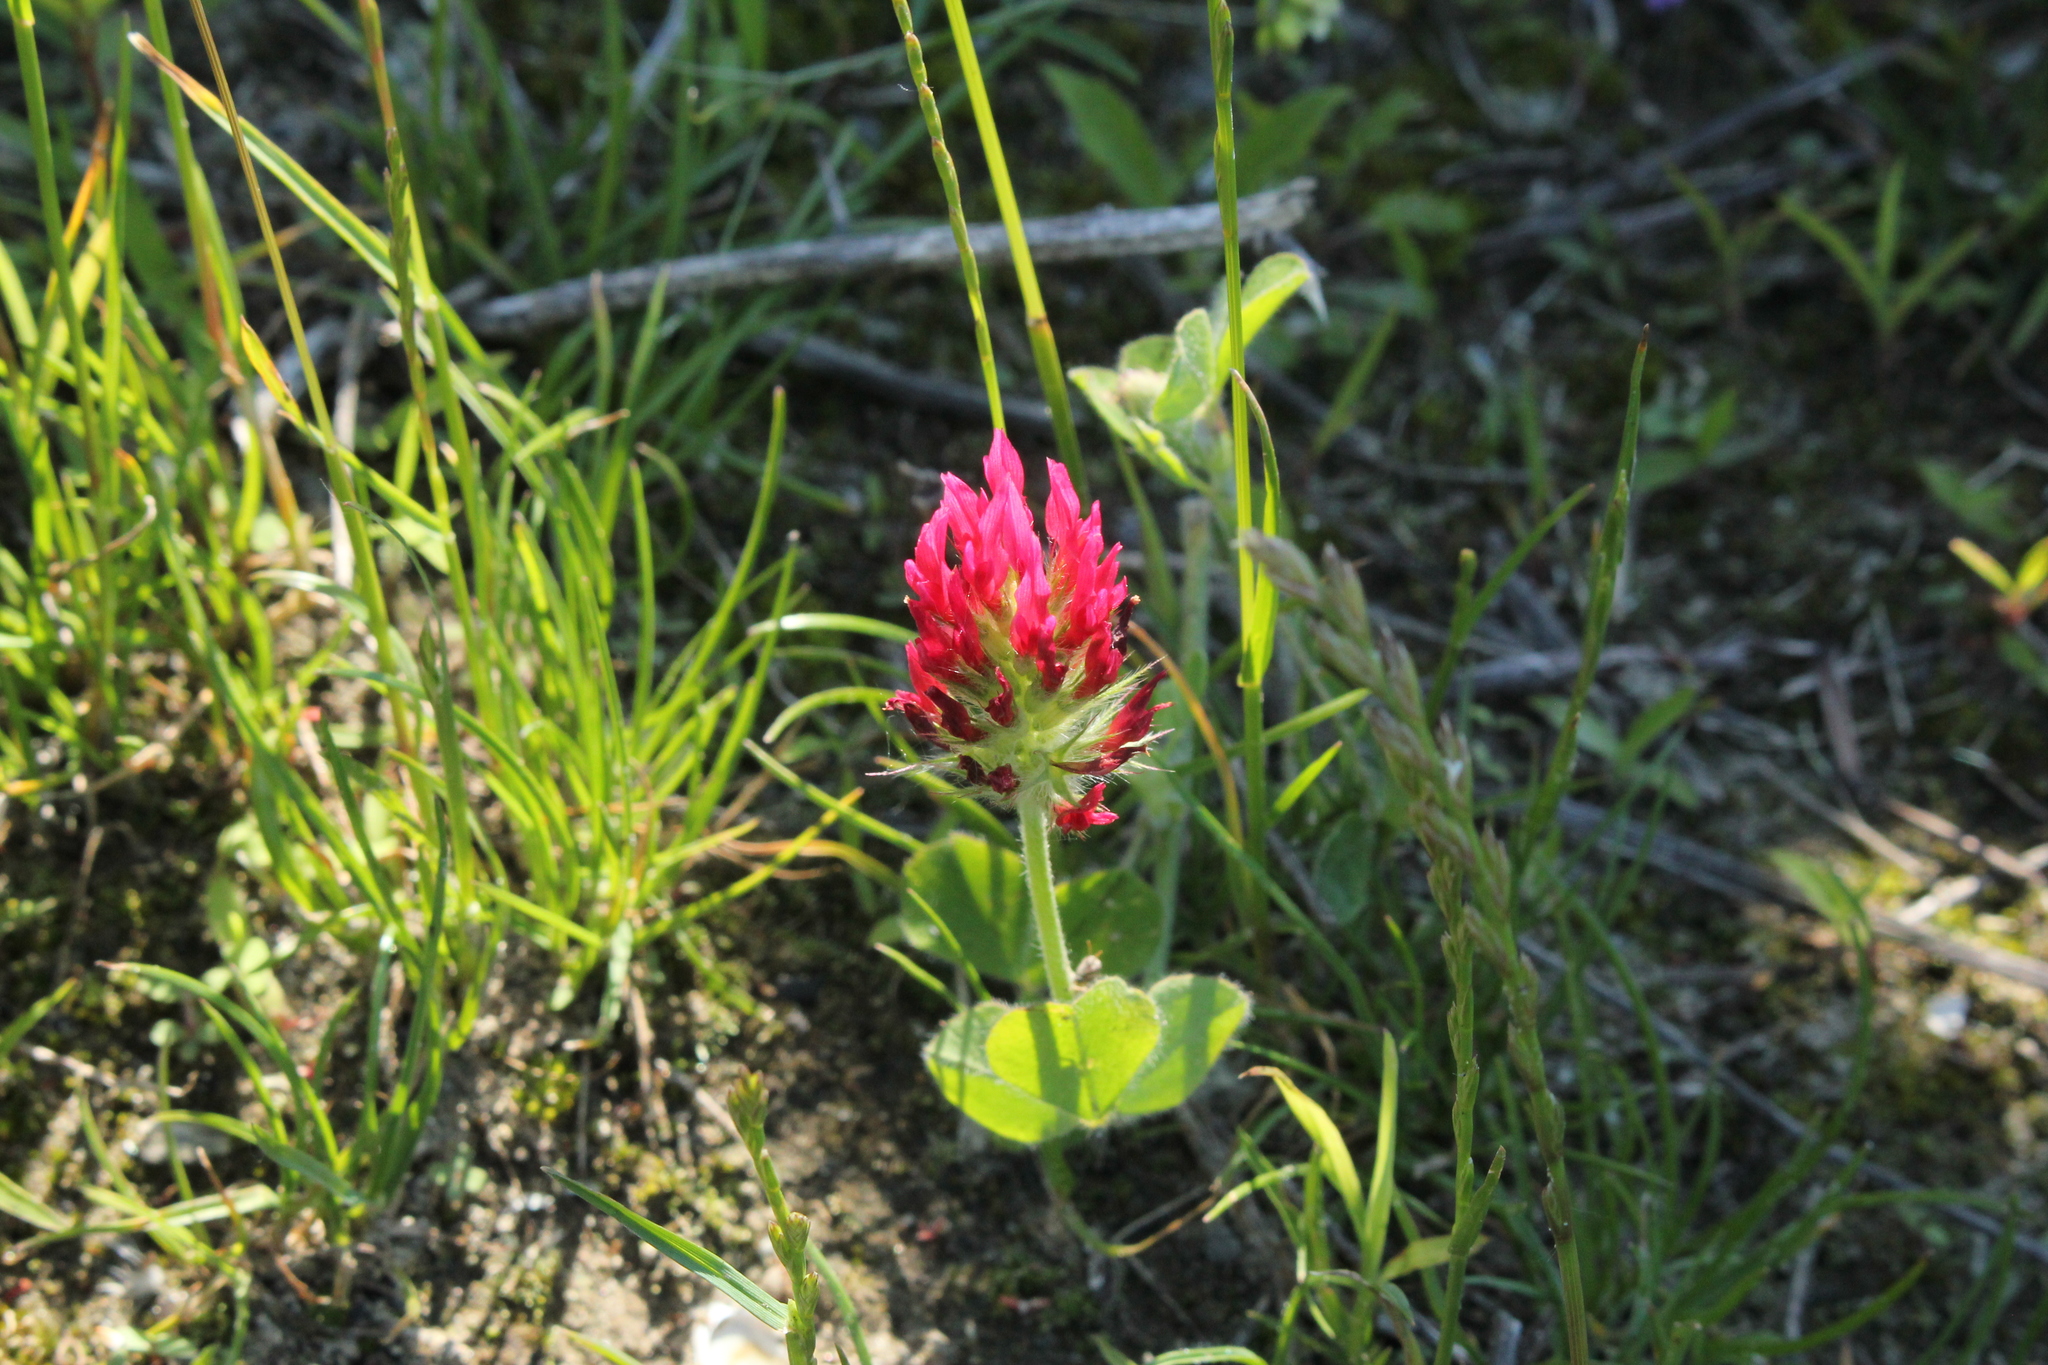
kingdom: Plantae
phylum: Tracheophyta
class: Magnoliopsida
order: Fabales
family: Fabaceae
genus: Trifolium
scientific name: Trifolium incarnatum
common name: Crimson clover
